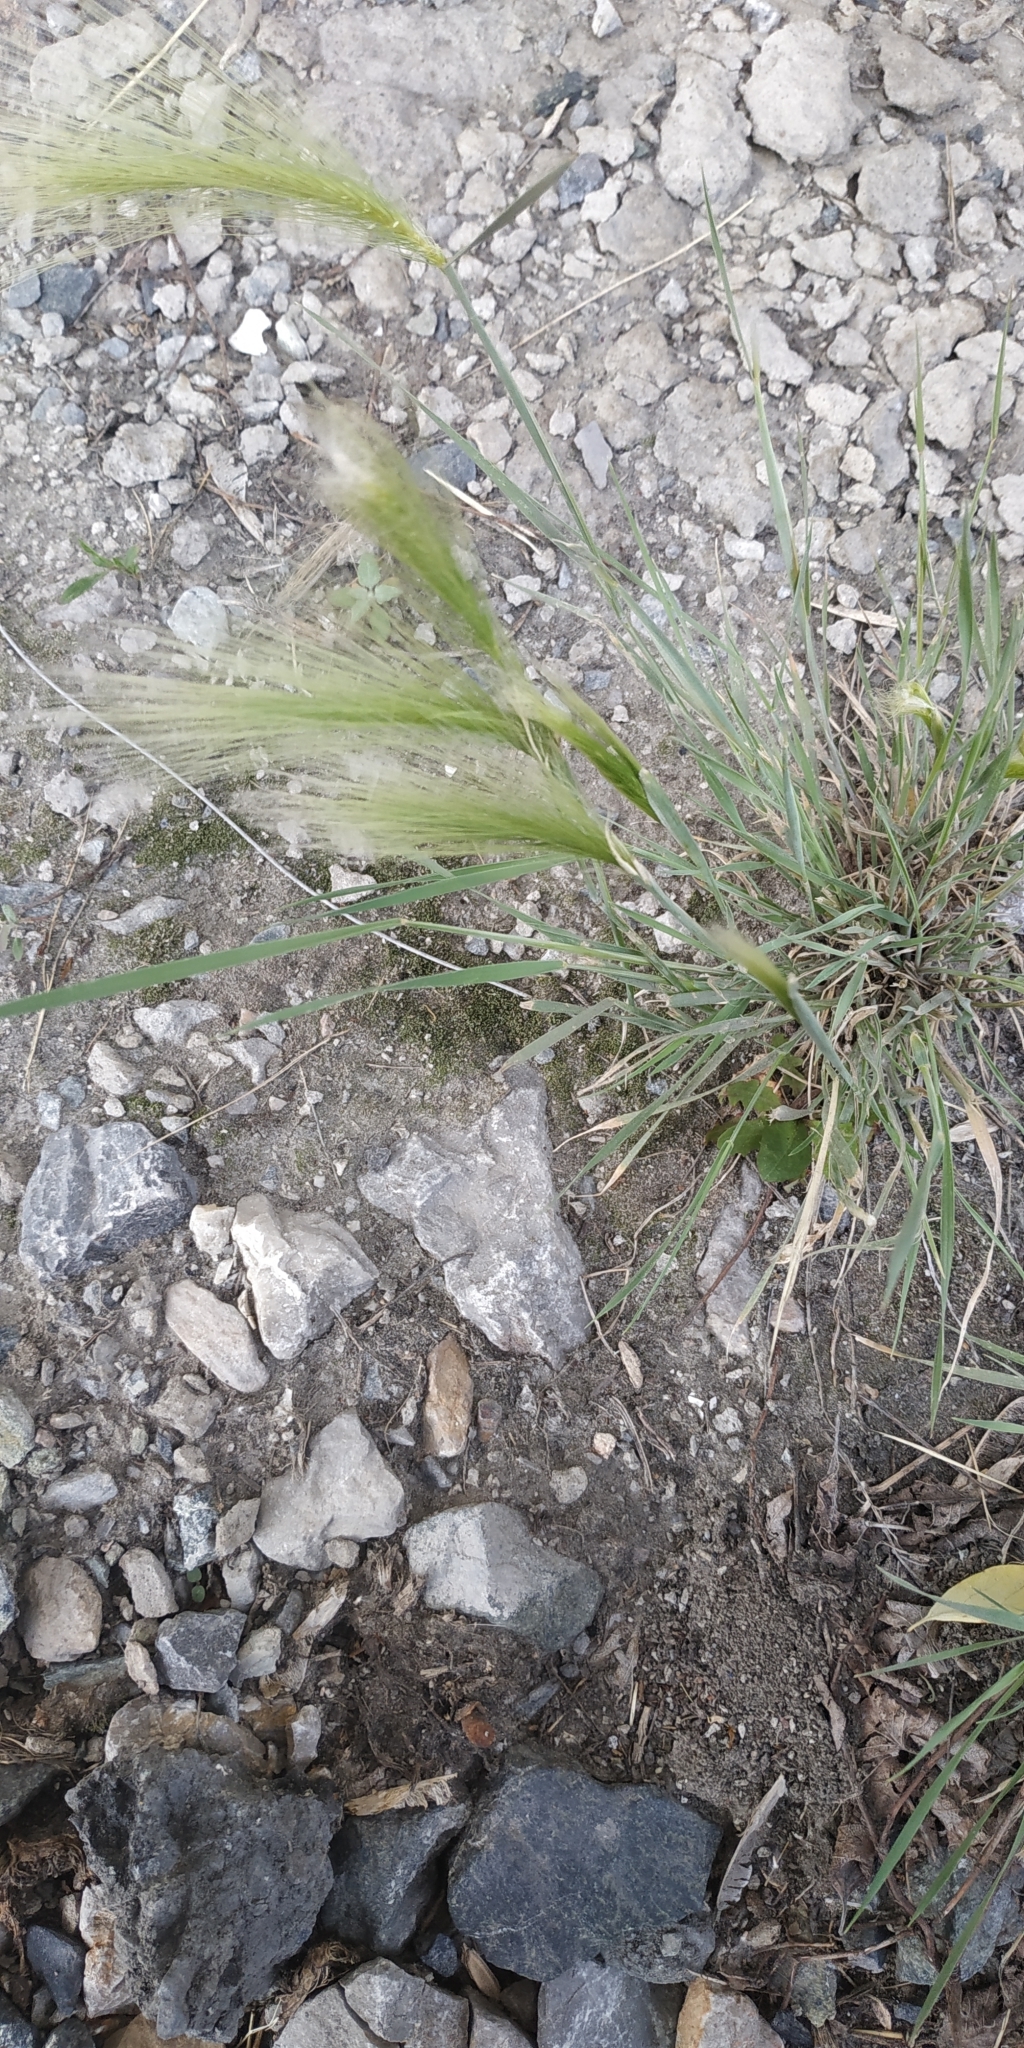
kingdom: Plantae
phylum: Tracheophyta
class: Liliopsida
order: Poales
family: Poaceae
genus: Hordeum
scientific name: Hordeum jubatum
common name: Foxtail barley
